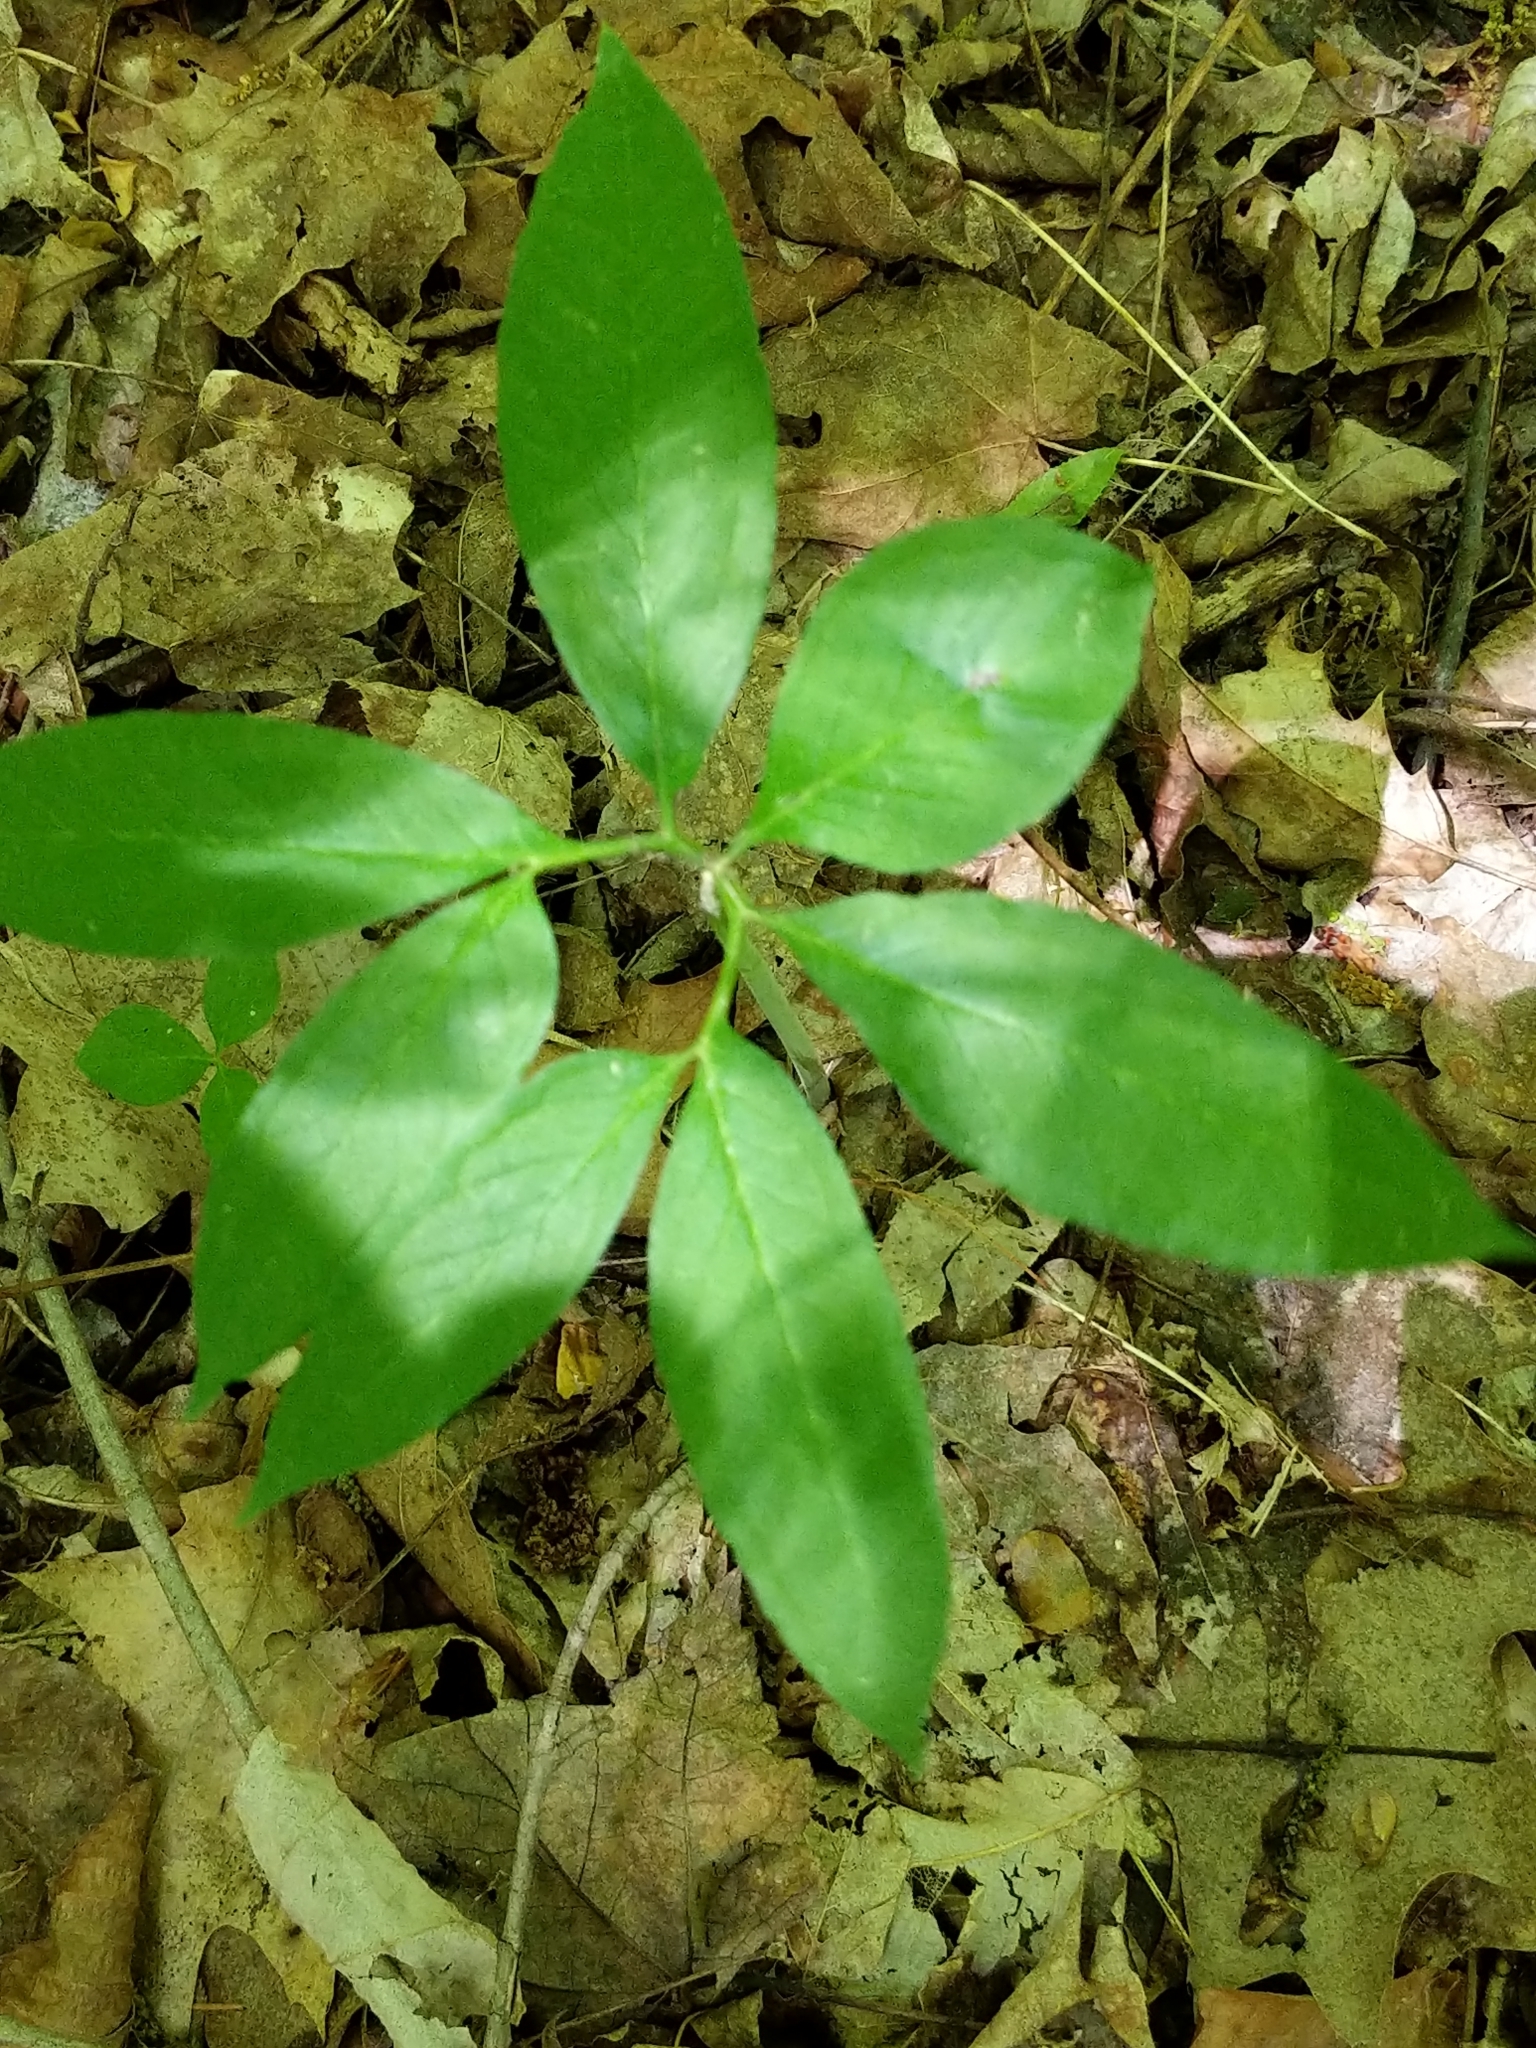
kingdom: Plantae
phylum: Tracheophyta
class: Liliopsida
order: Alismatales
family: Araceae
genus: Arisaema
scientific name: Arisaema dracontium
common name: Dragon-arum
